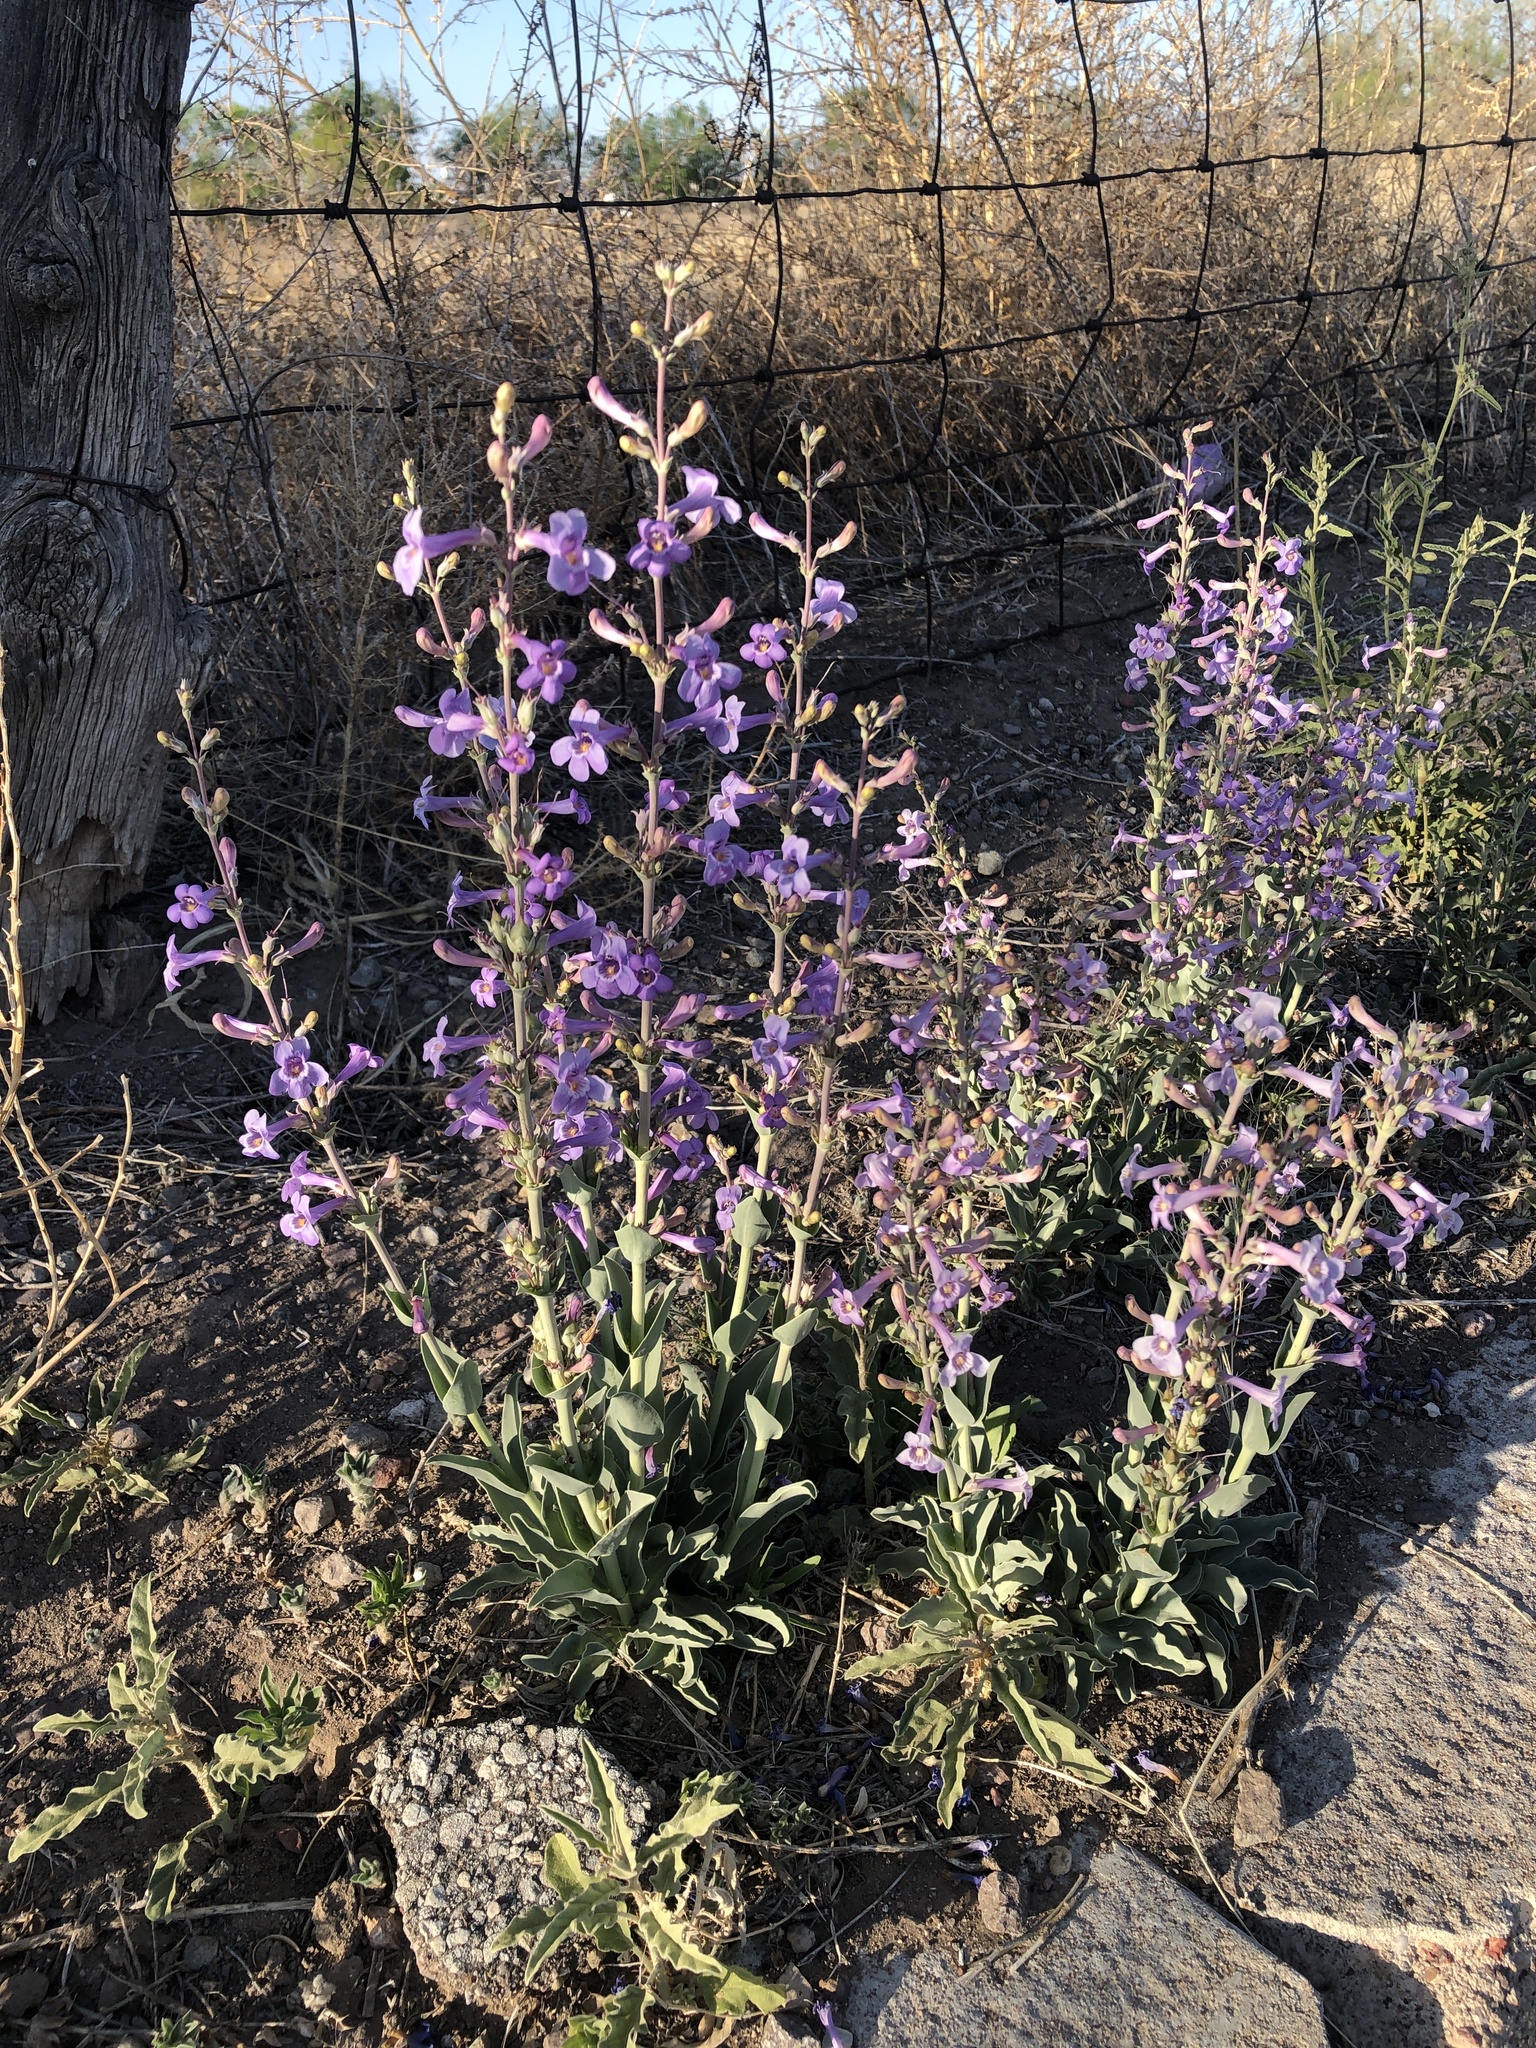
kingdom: Plantae
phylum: Tracheophyta
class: Magnoliopsida
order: Lamiales
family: Plantaginaceae
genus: Penstemon
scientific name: Penstemon fendleri
